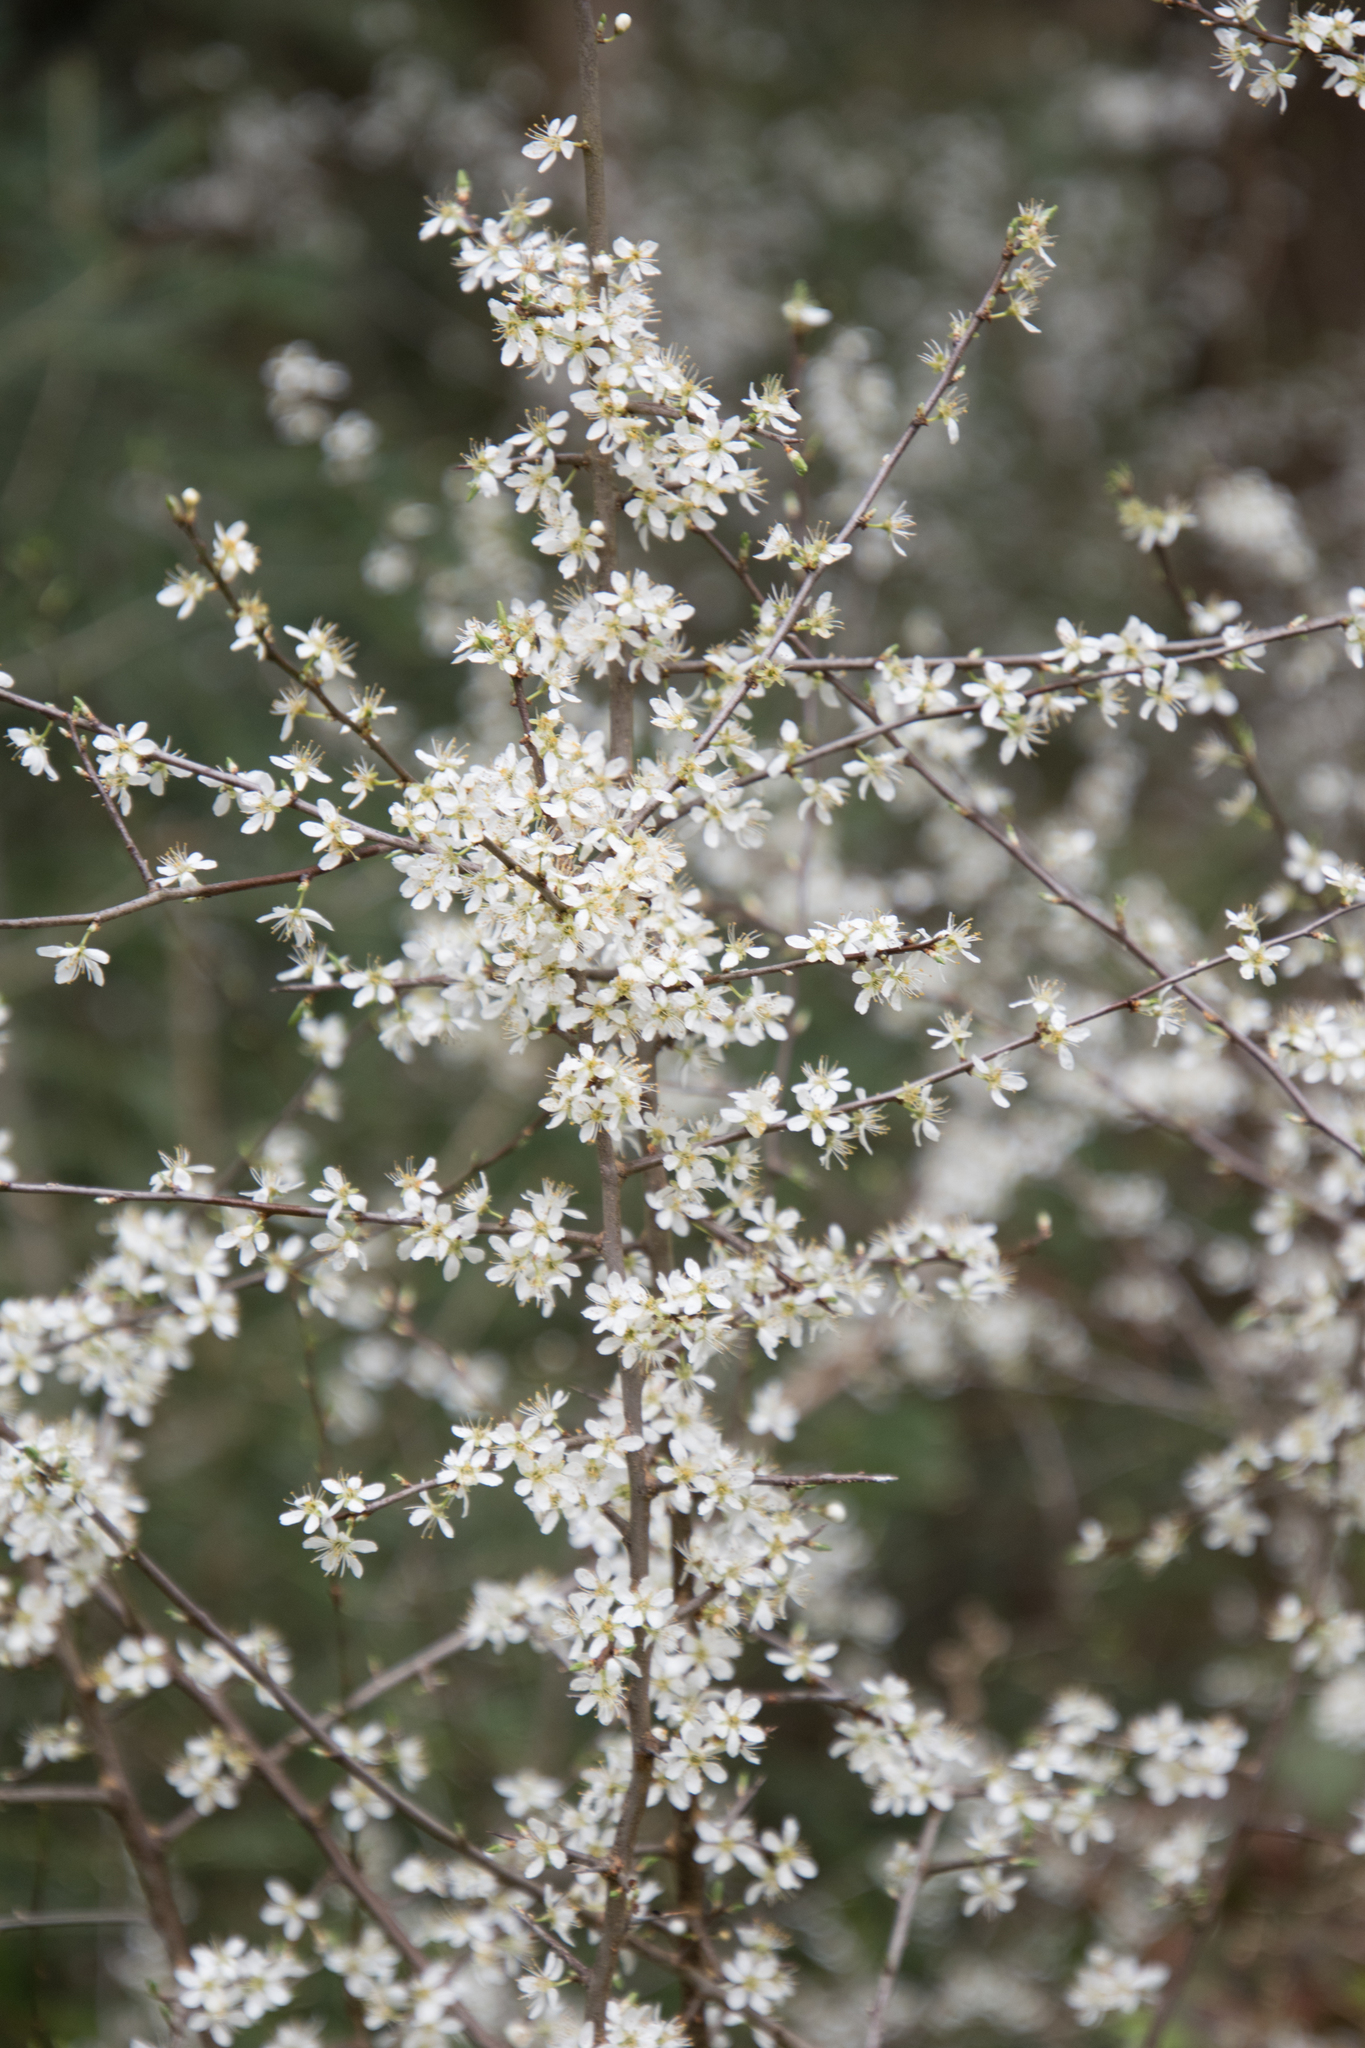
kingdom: Plantae
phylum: Tracheophyta
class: Magnoliopsida
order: Rosales
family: Rosaceae
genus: Prunus
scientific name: Prunus spinosa
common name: Blackthorn
